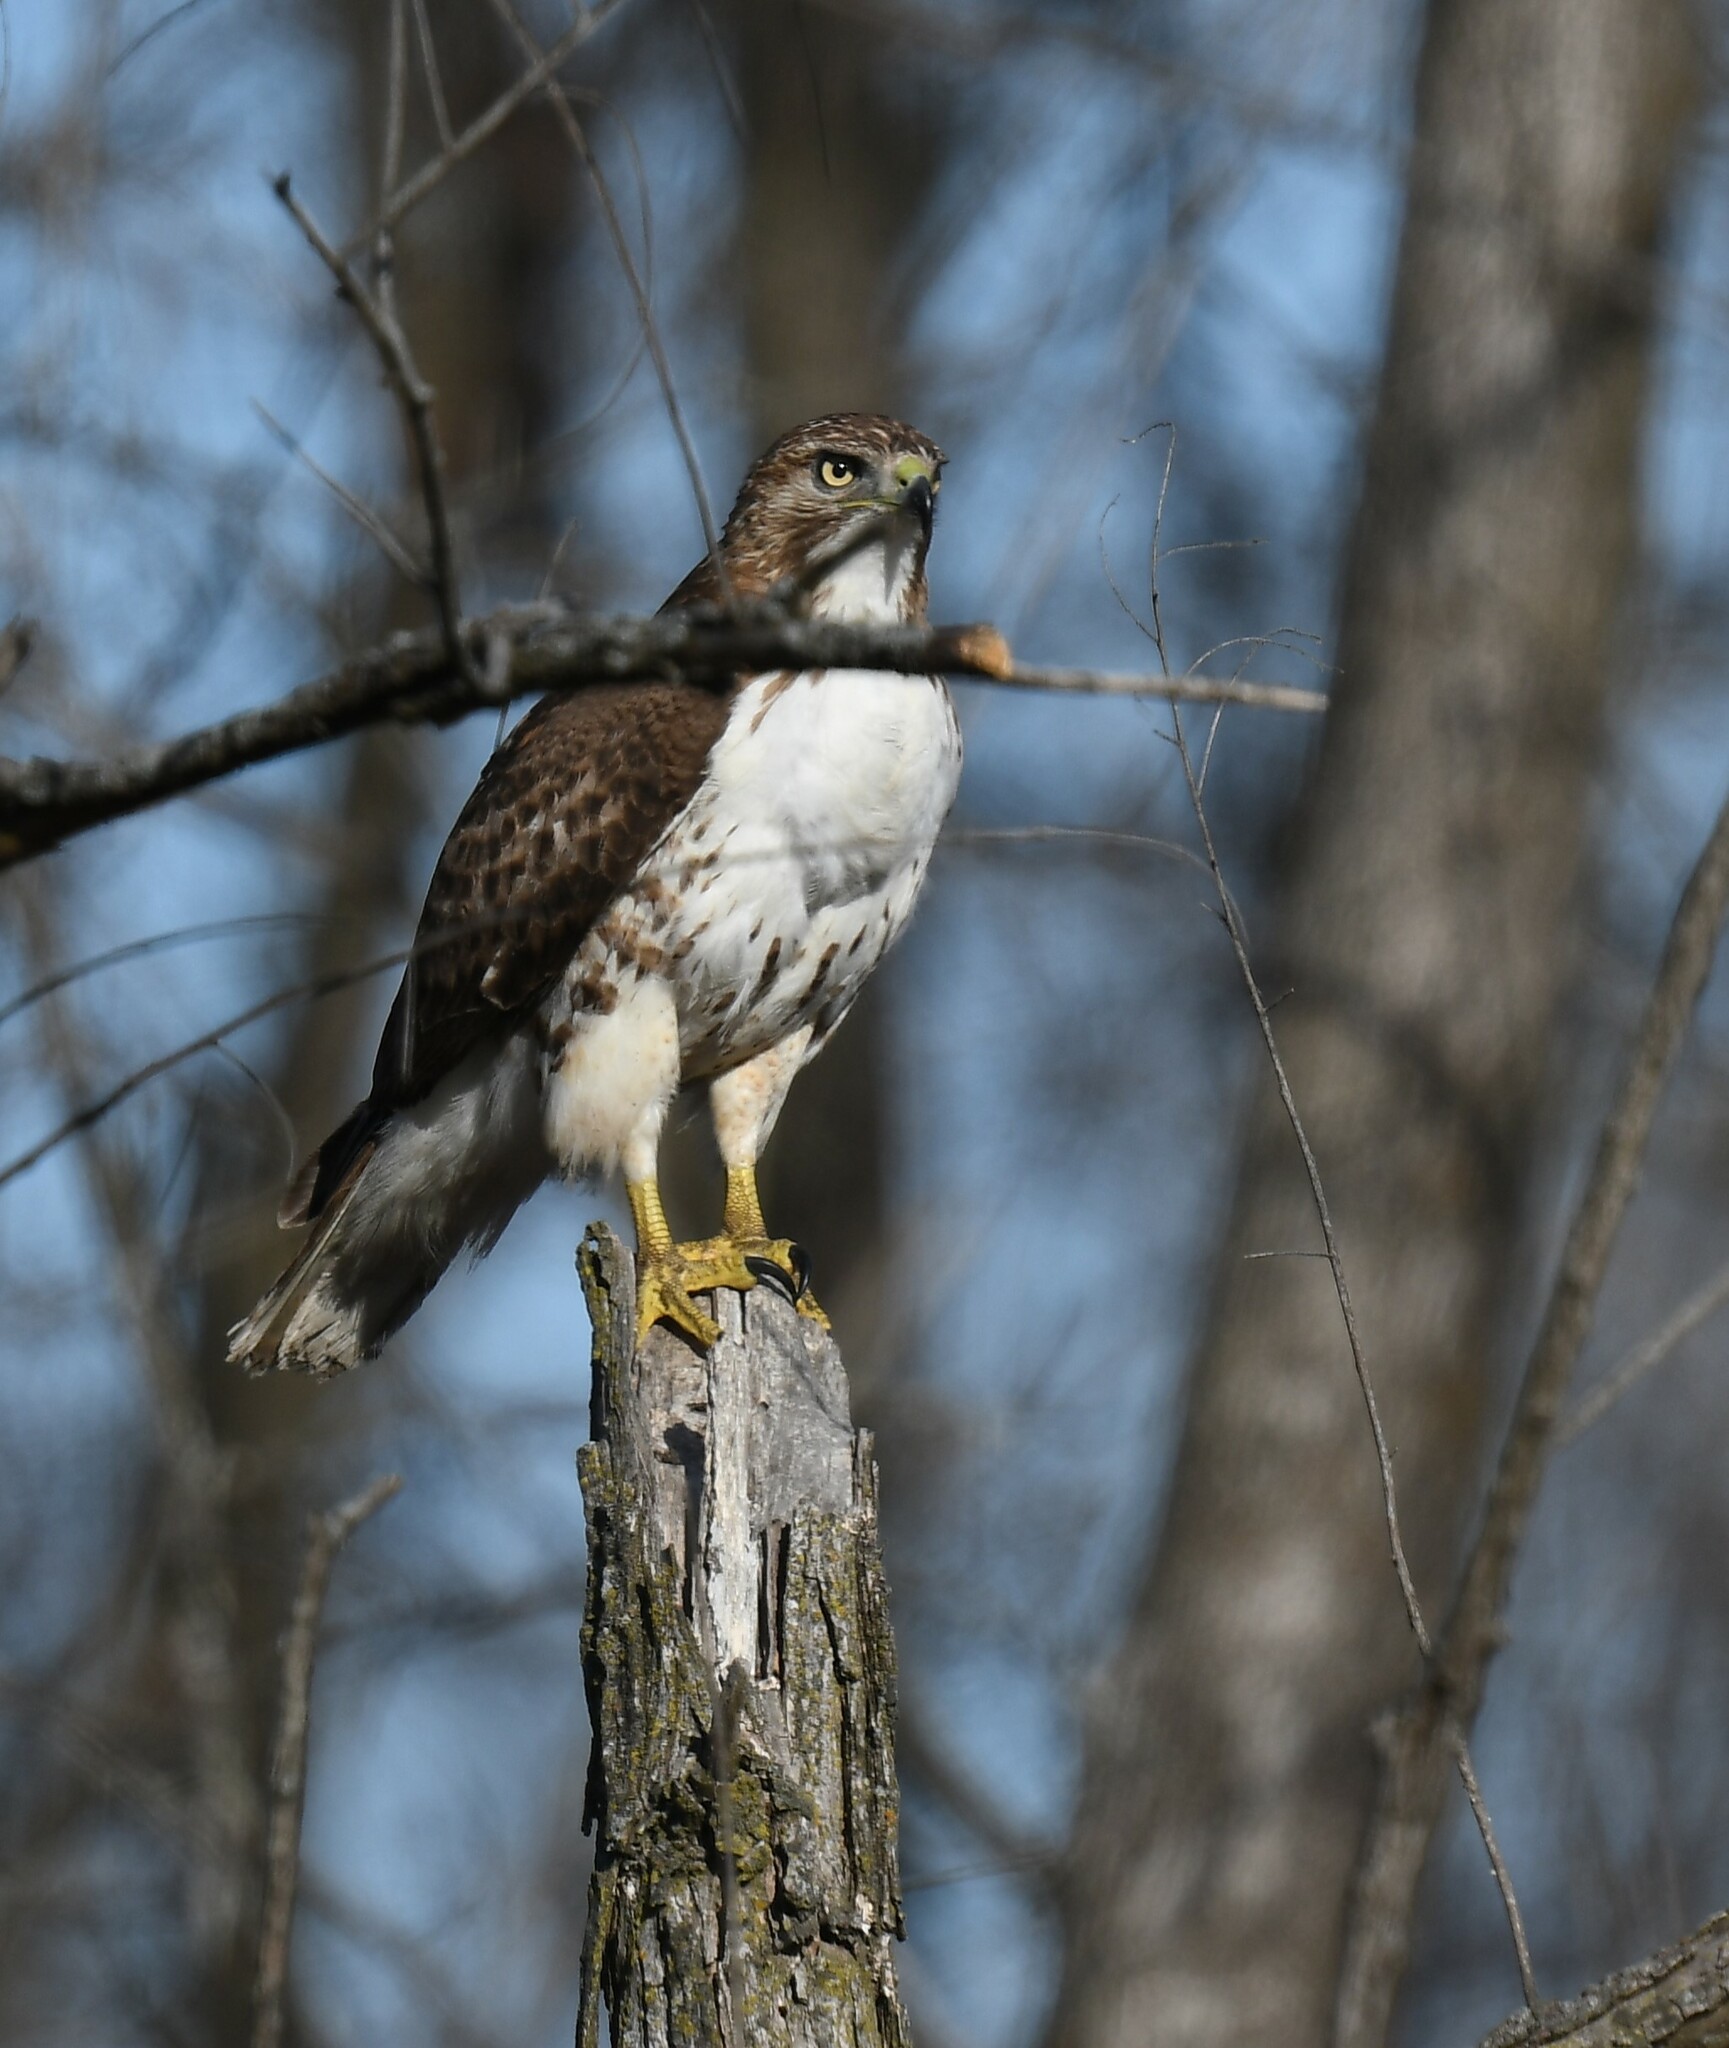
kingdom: Animalia
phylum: Chordata
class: Aves
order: Accipitriformes
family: Accipitridae
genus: Buteo
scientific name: Buteo jamaicensis
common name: Red-tailed hawk
